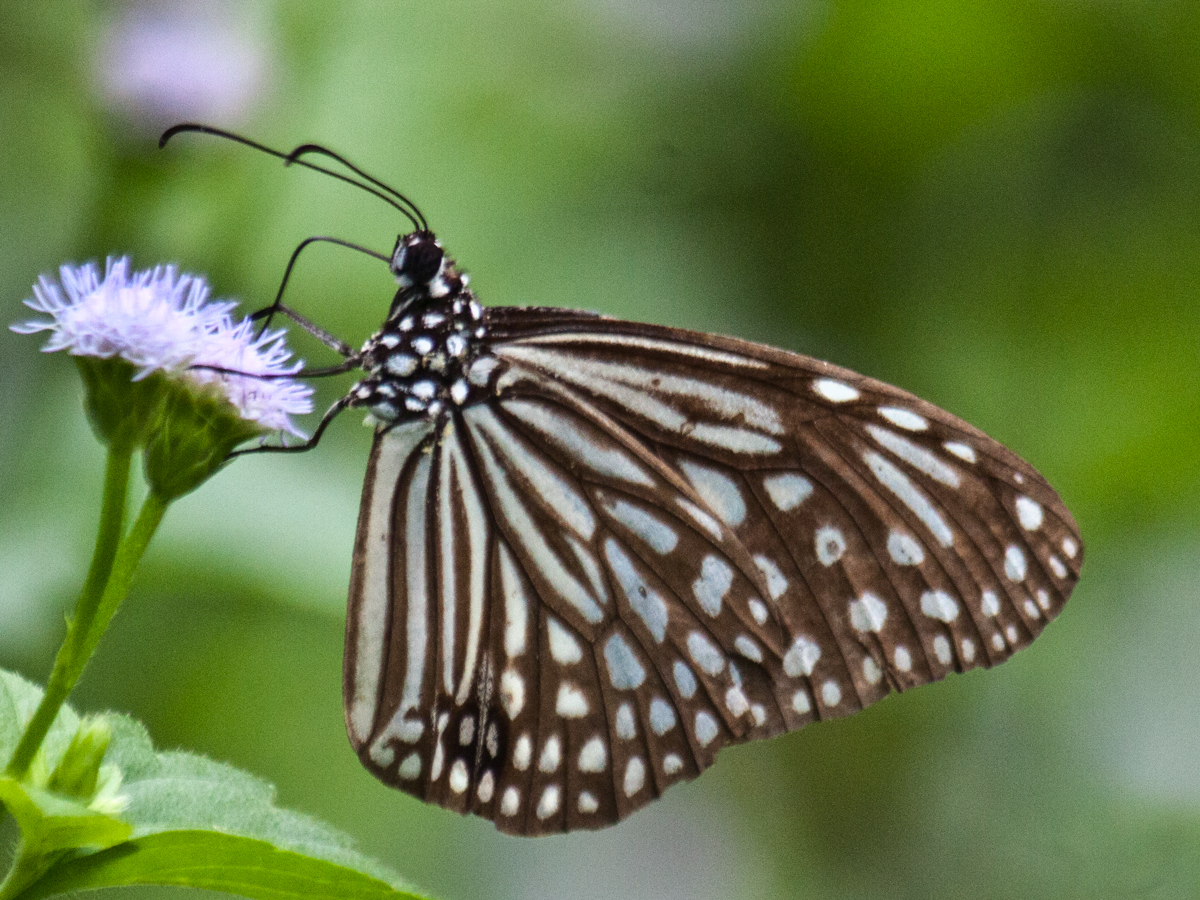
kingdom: Animalia
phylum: Arthropoda
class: Insecta
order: Lepidoptera
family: Nymphalidae
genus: Parantica
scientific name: Parantica agleoides
